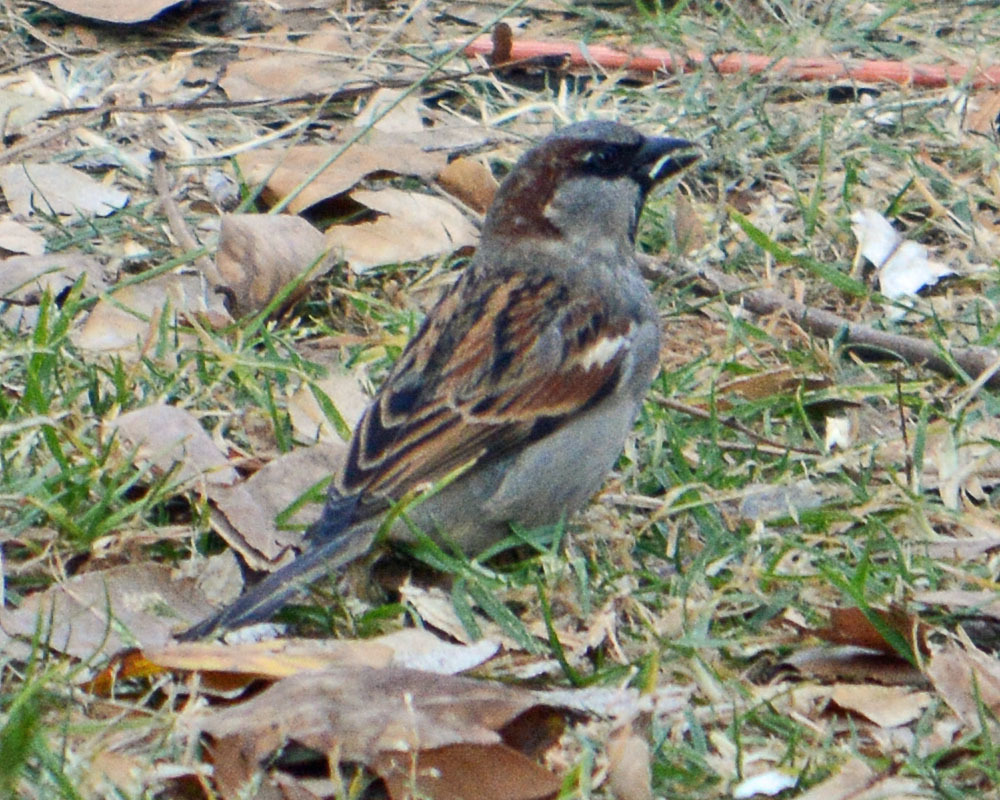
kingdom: Animalia
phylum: Chordata
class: Aves
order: Passeriformes
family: Passeridae
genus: Passer
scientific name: Passer domesticus
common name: House sparrow
